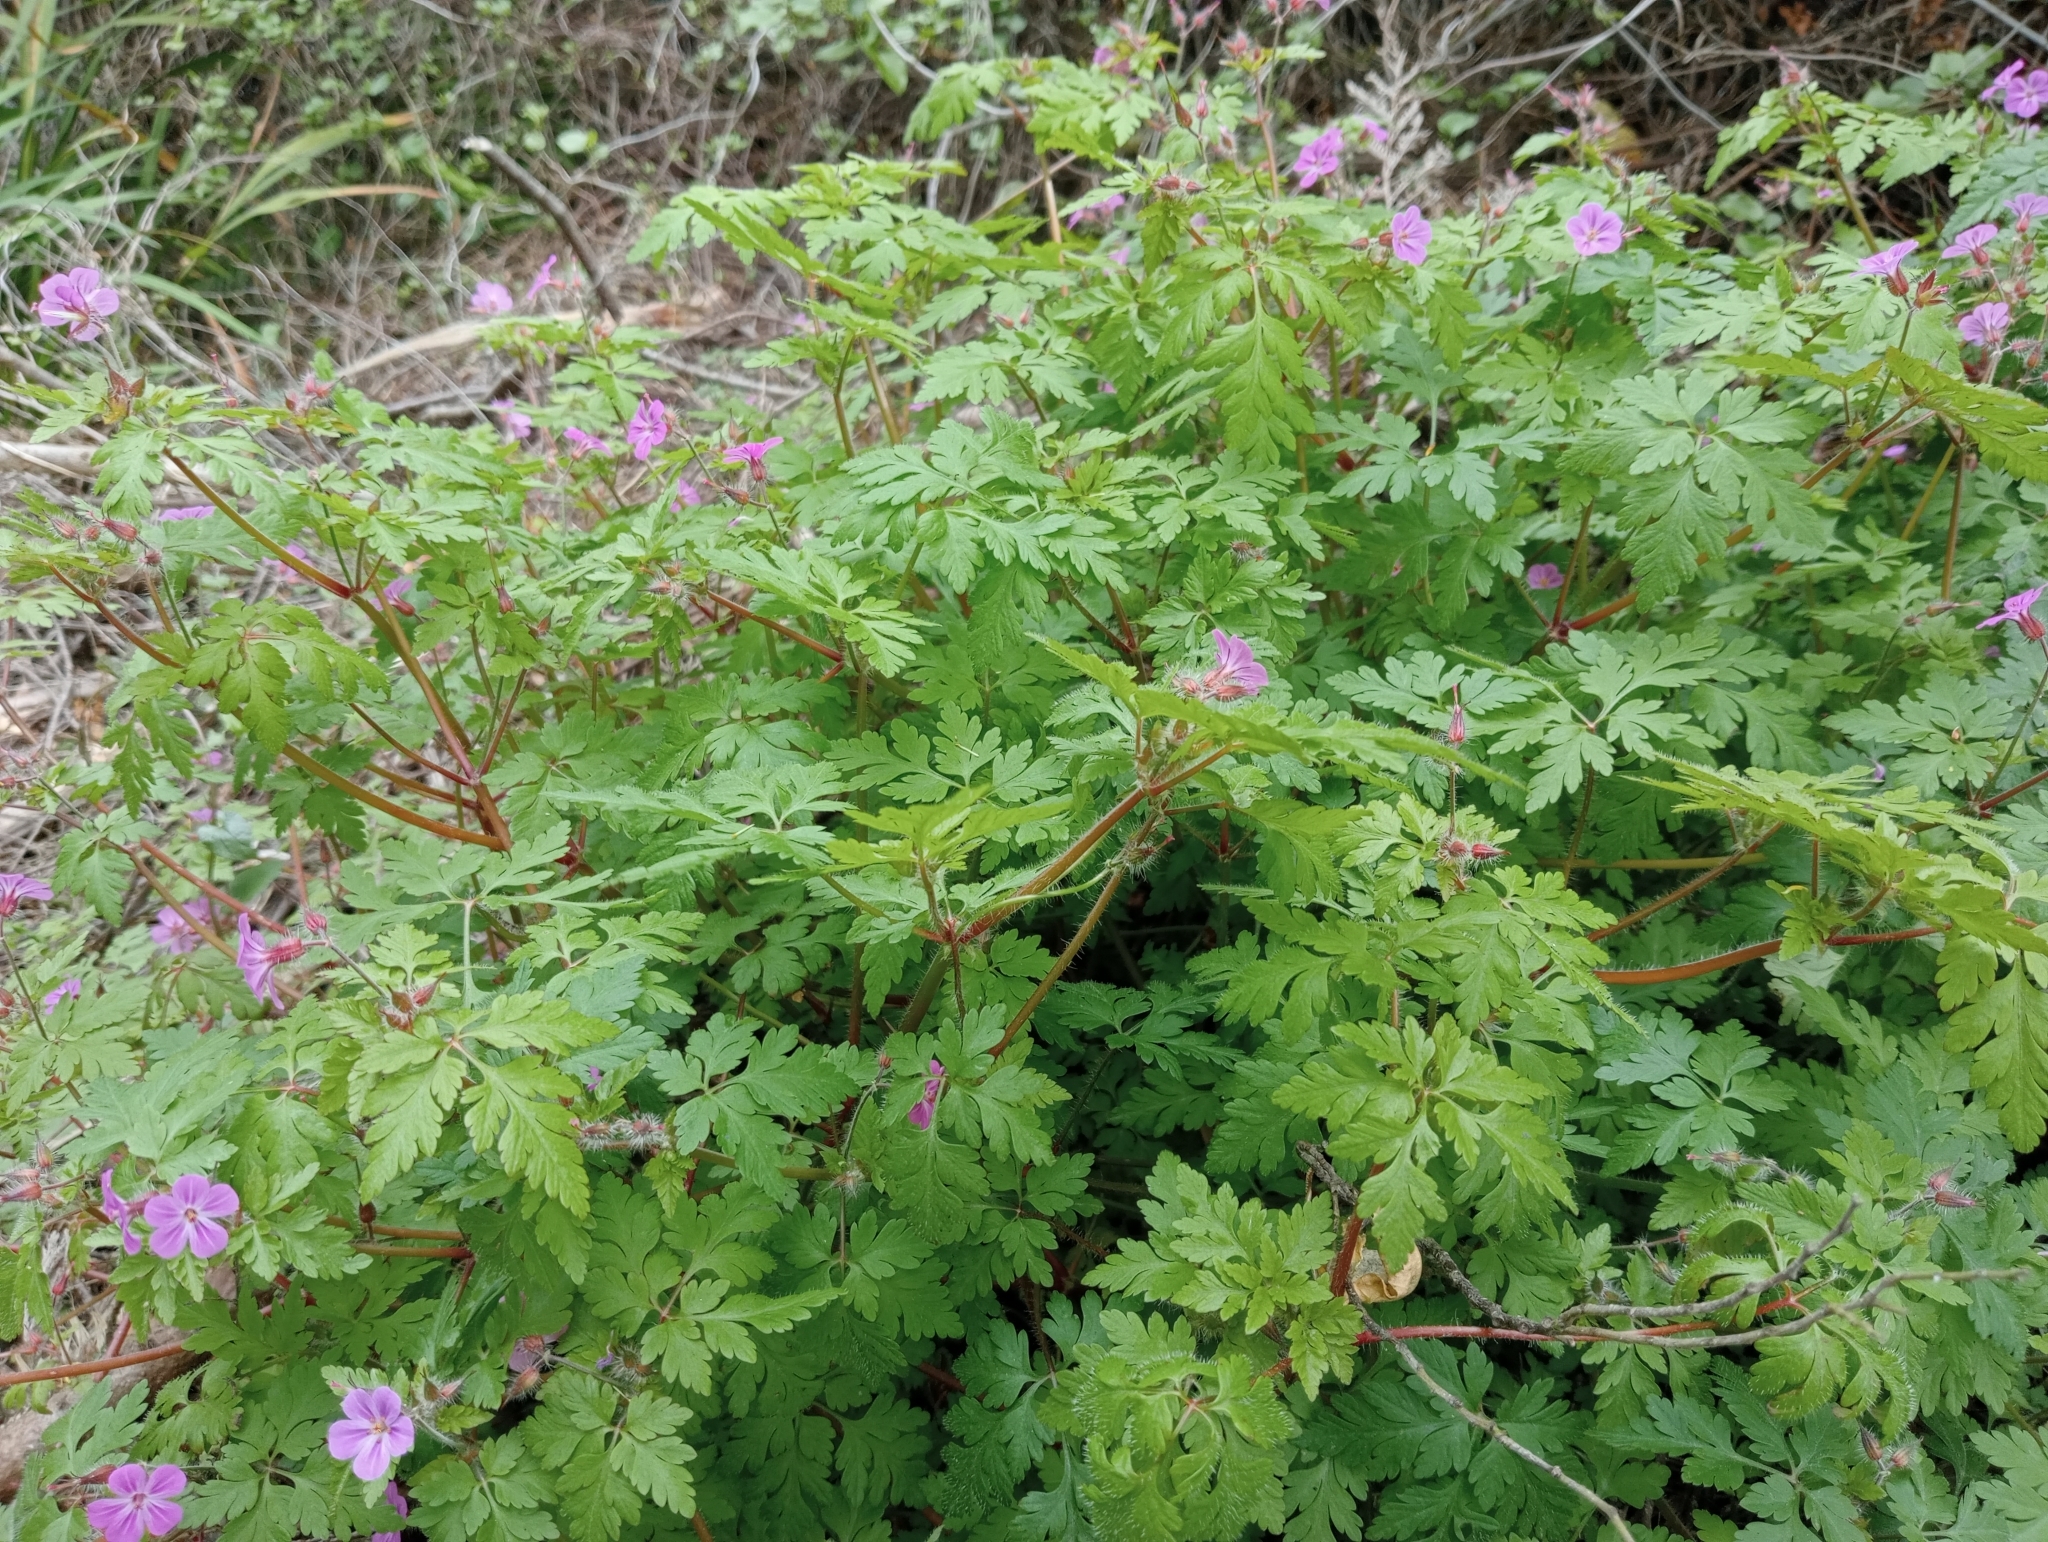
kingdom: Plantae
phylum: Tracheophyta
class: Magnoliopsida
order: Geraniales
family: Geraniaceae
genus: Geranium
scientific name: Geranium robertianum
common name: Herb-robert
